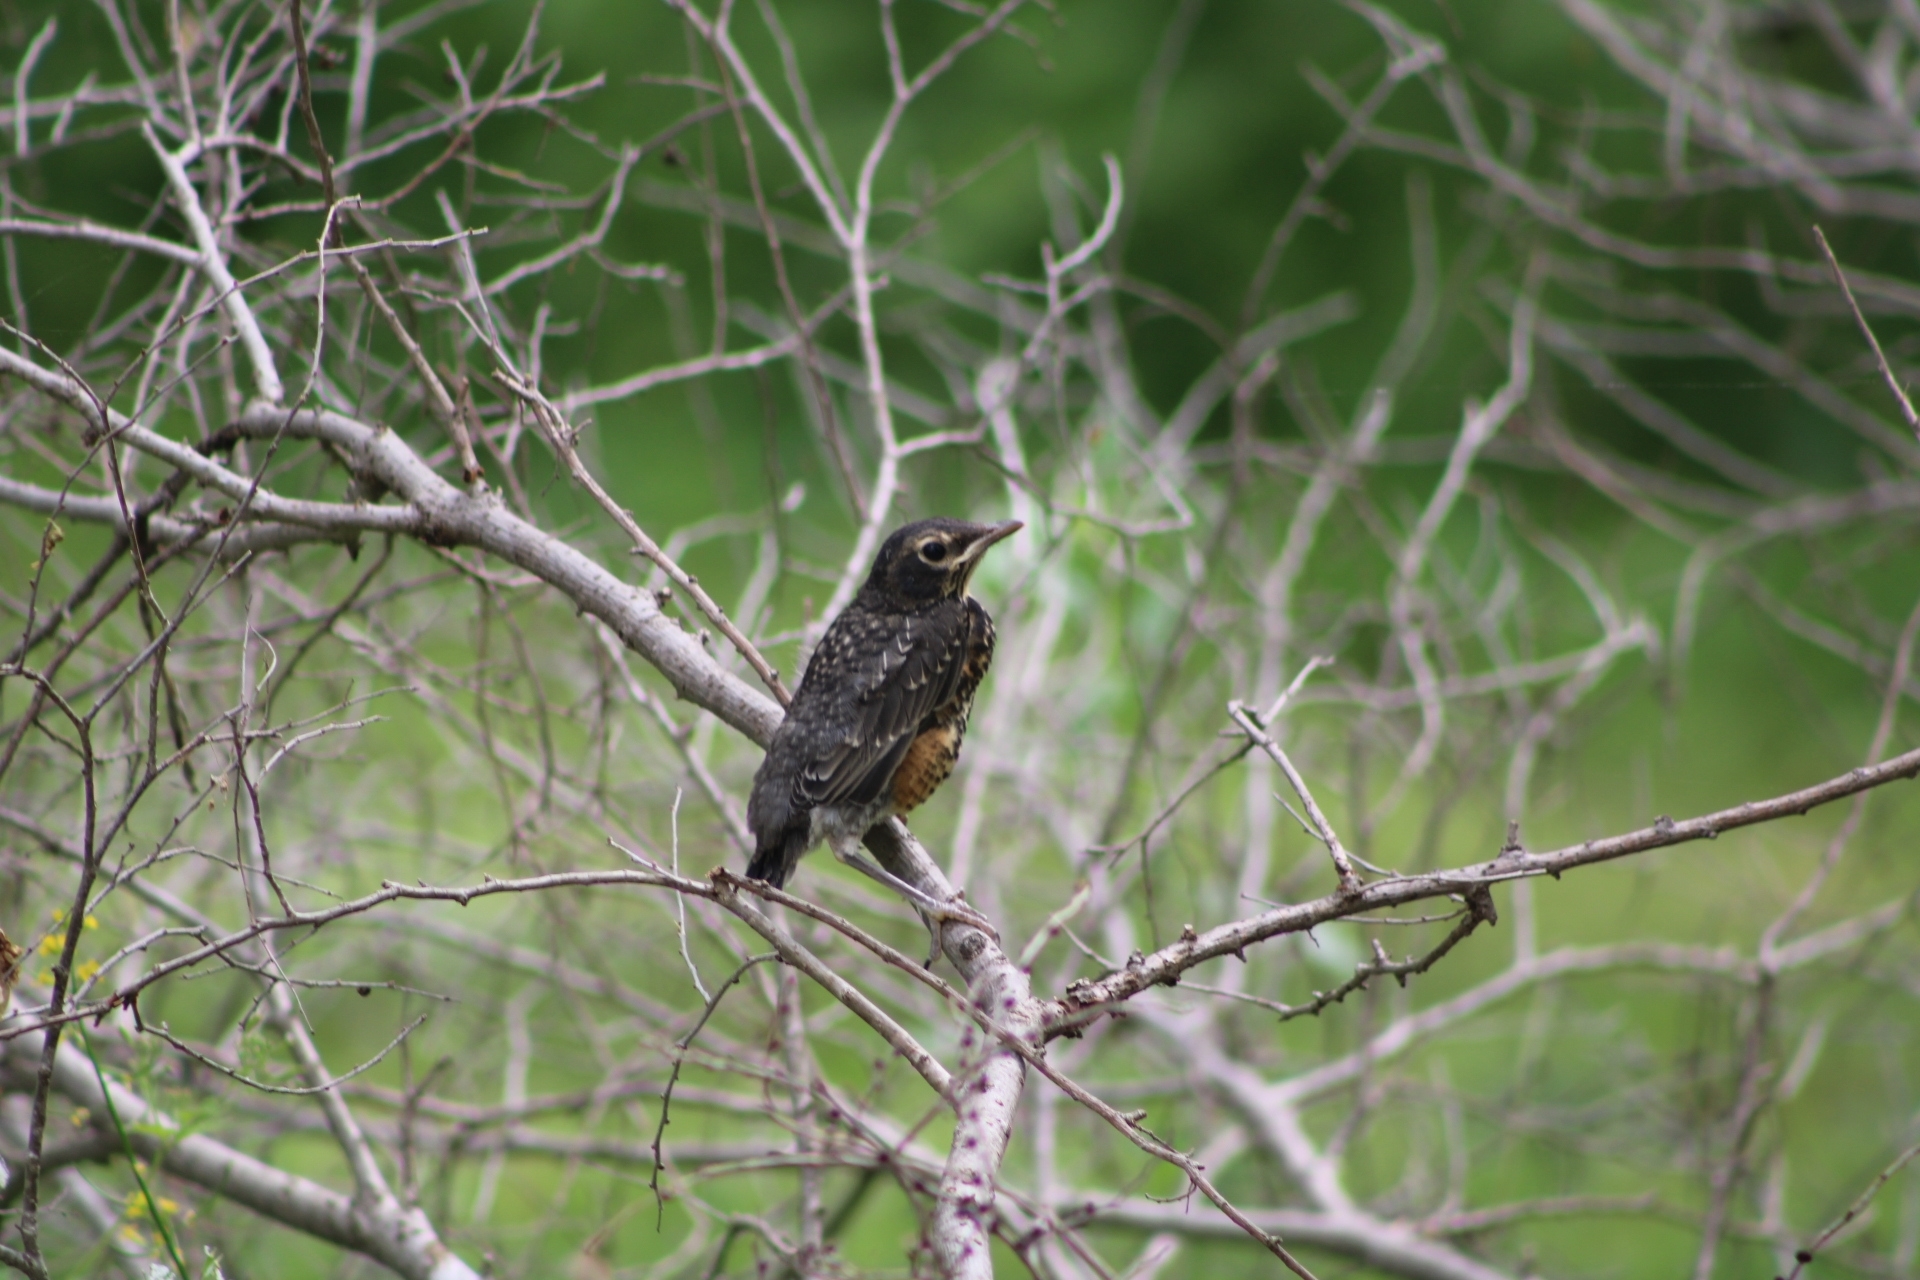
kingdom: Animalia
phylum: Chordata
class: Aves
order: Passeriformes
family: Turdidae
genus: Turdus
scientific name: Turdus migratorius
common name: American robin
